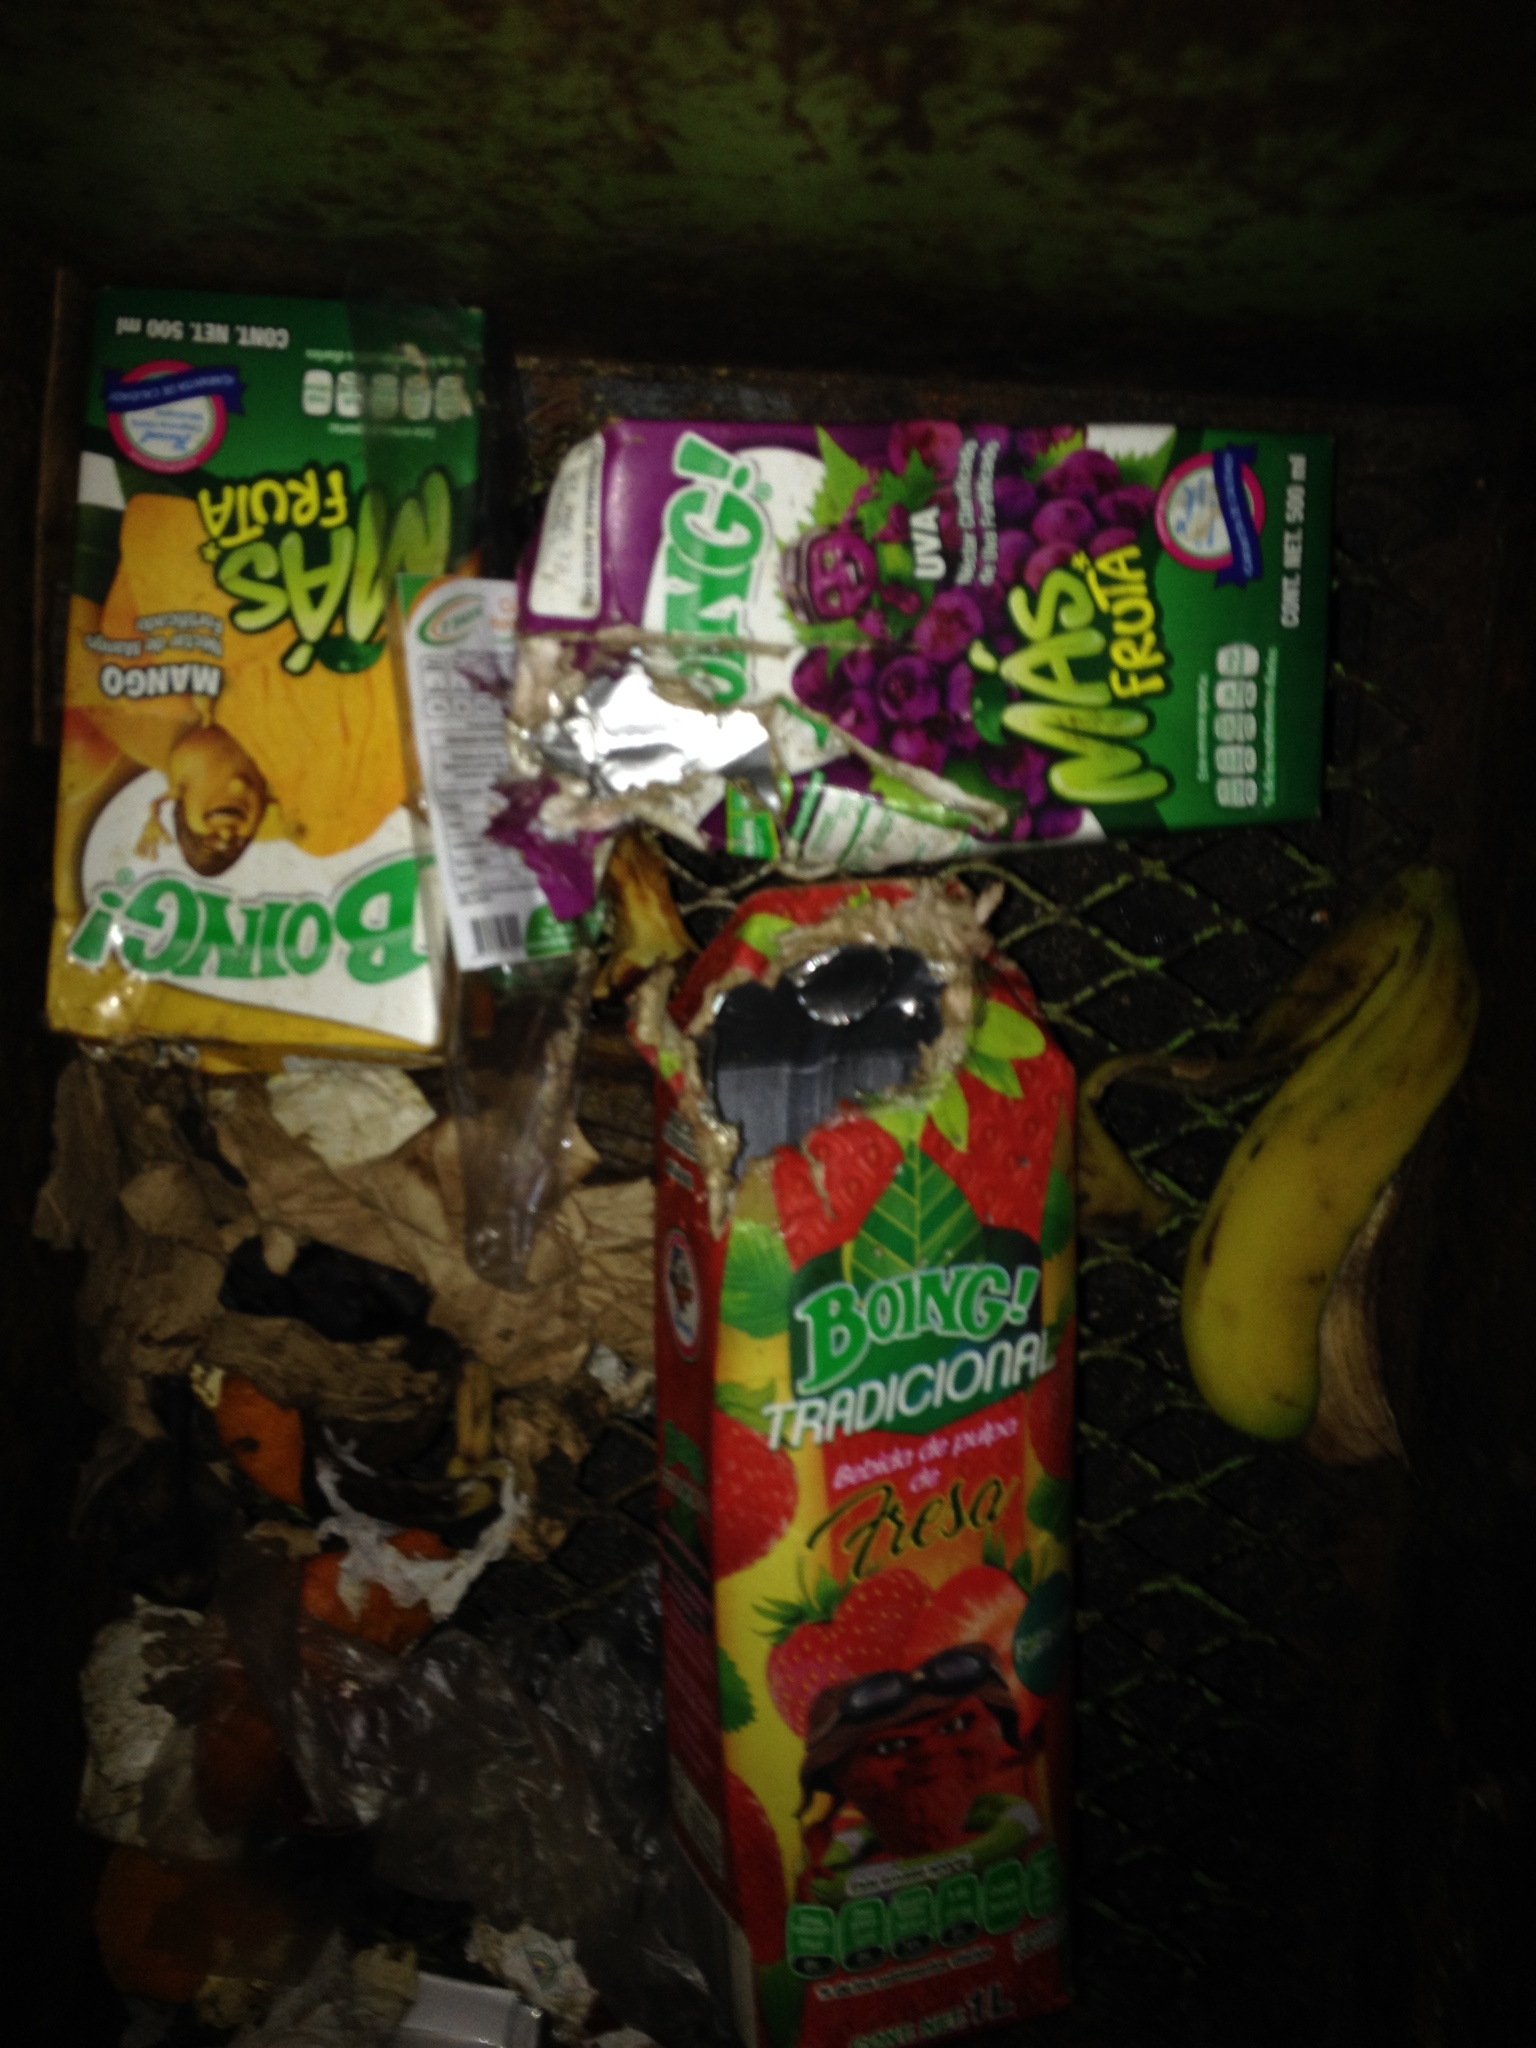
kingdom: Animalia
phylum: Chordata
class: Mammalia
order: Didelphimorphia
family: Didelphidae
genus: Didelphis
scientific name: Didelphis virginiana
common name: Virginia opossum
